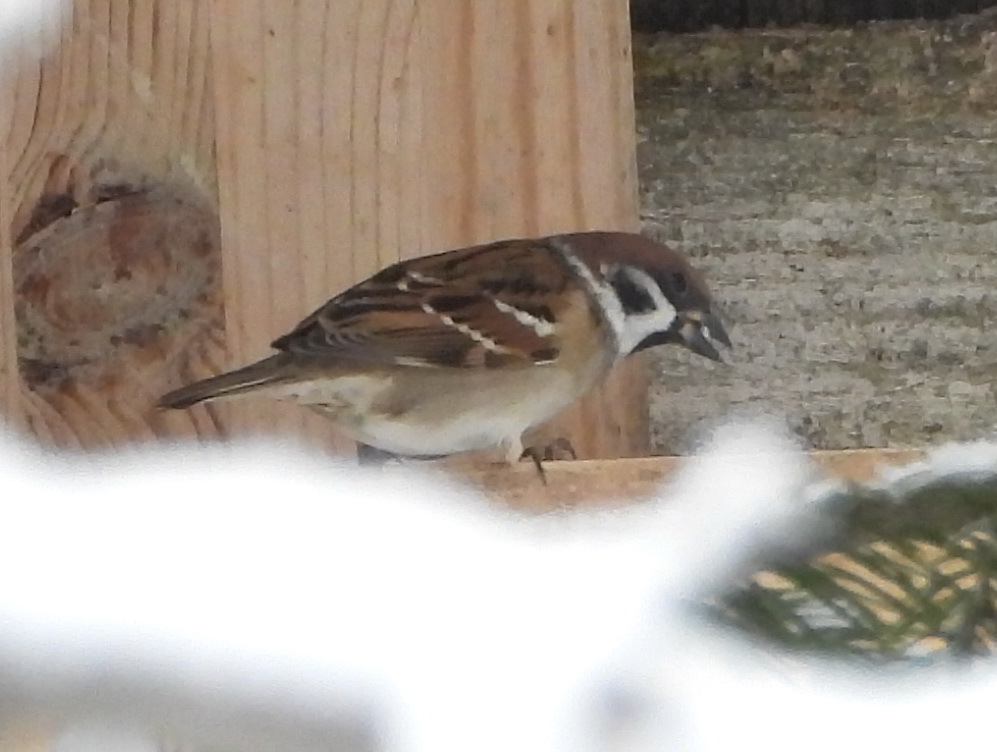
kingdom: Animalia
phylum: Chordata
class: Aves
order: Passeriformes
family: Passeridae
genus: Passer
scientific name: Passer montanus
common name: Eurasian tree sparrow
